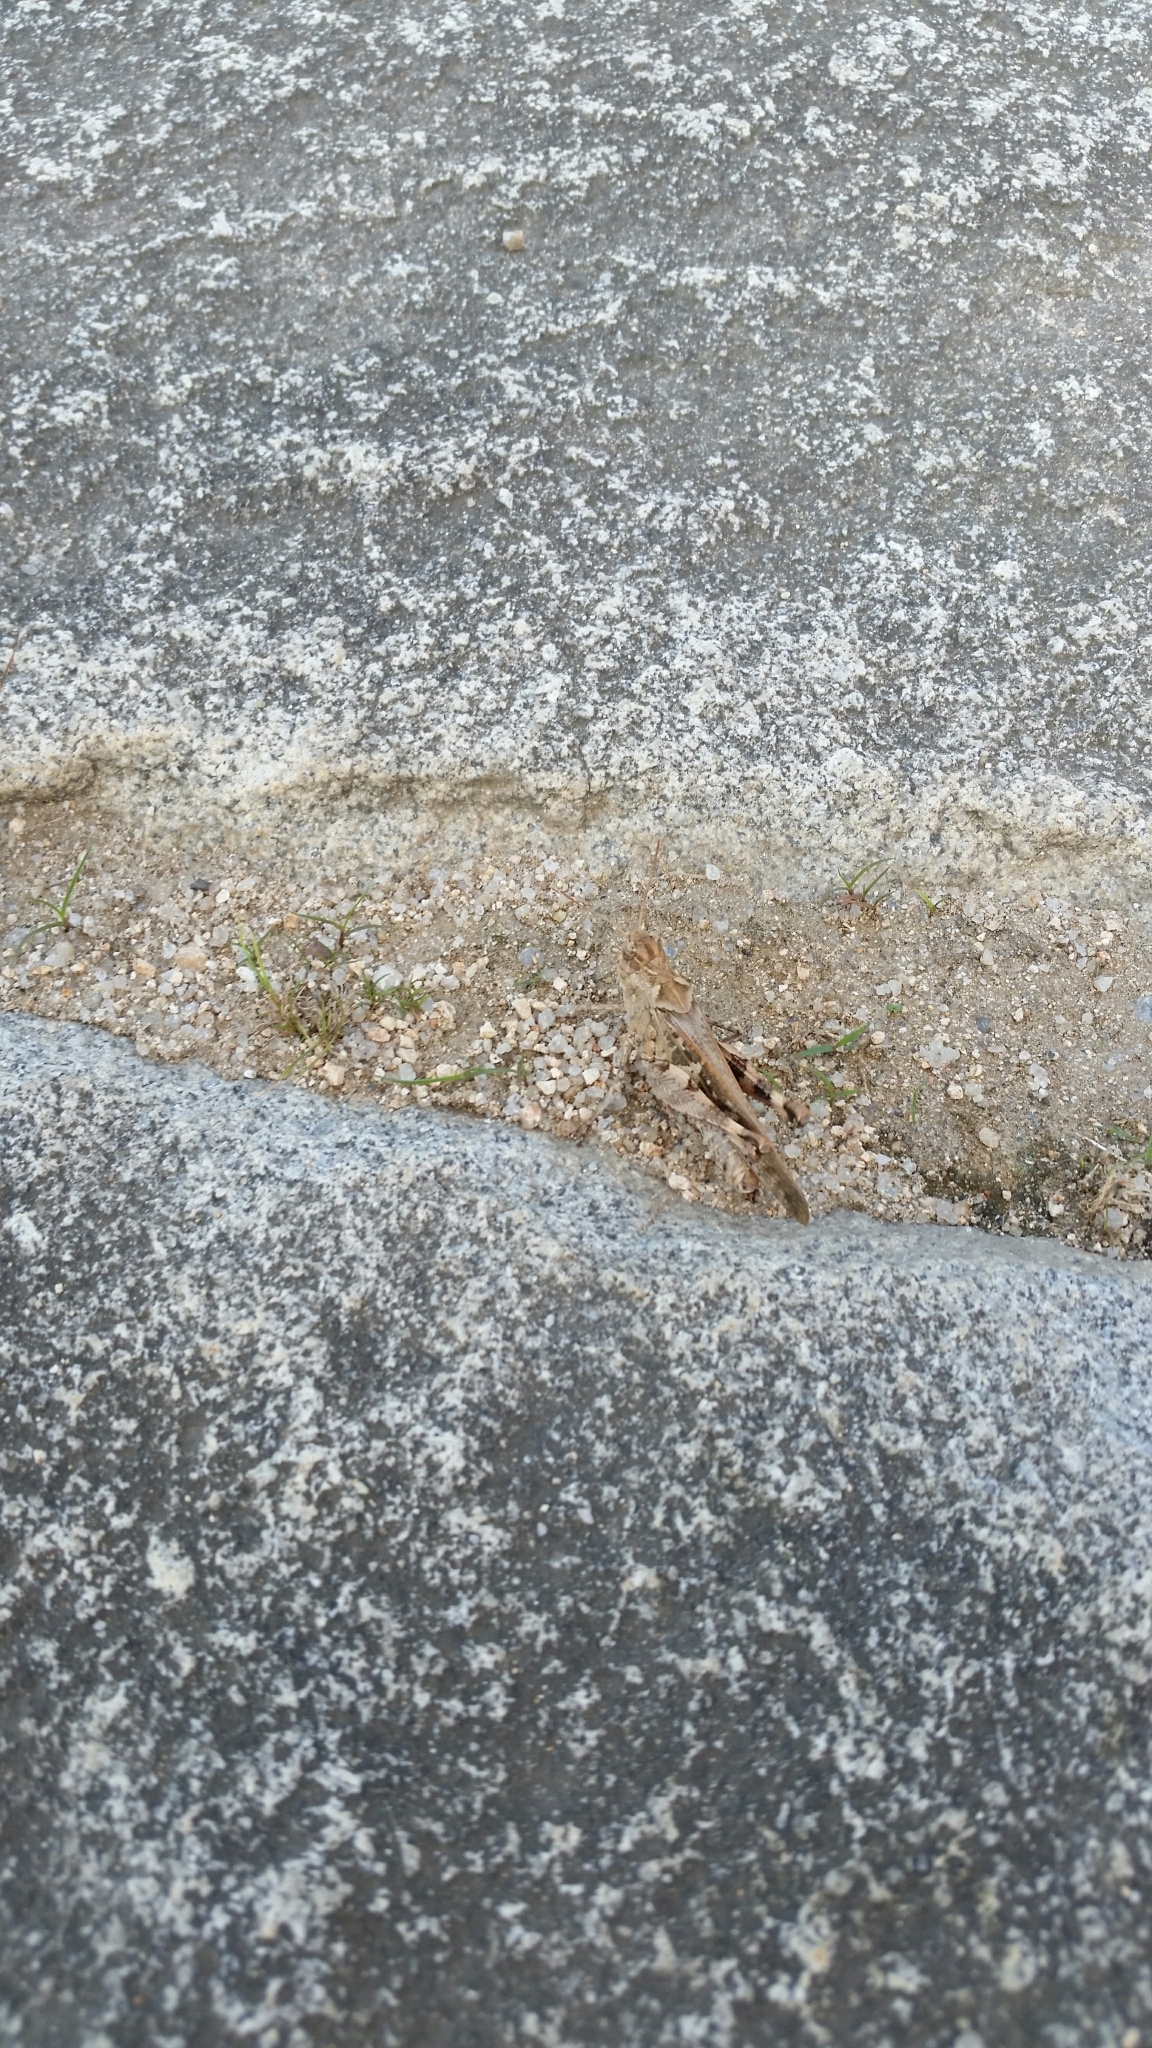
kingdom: Animalia
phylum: Arthropoda
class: Insecta
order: Orthoptera
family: Acrididae
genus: Oedaleus
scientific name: Oedaleus infernalis
